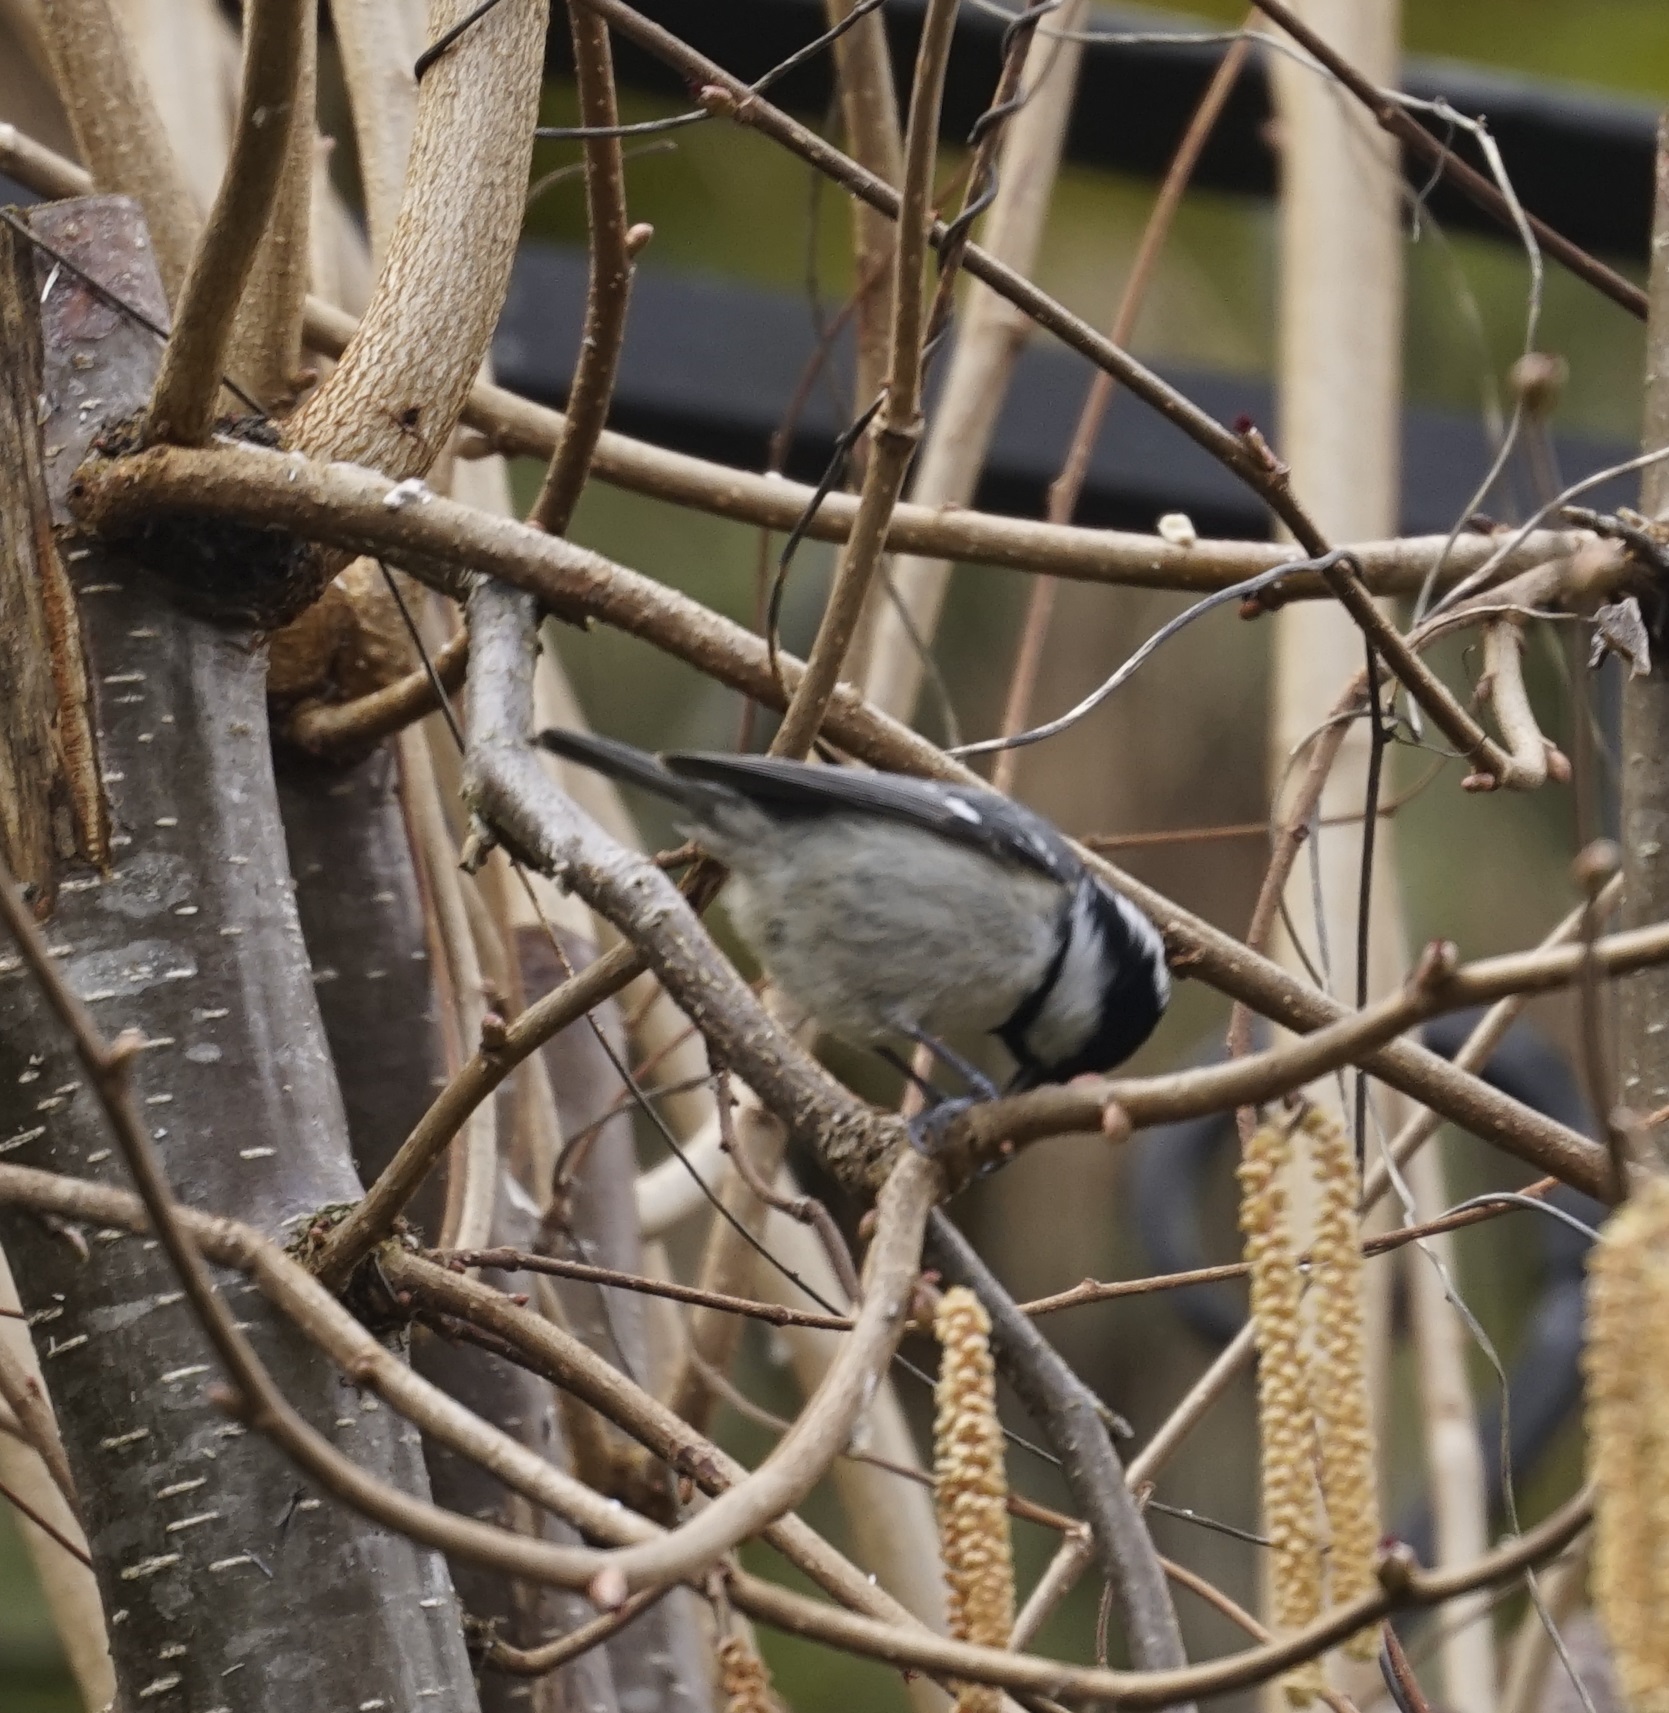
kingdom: Animalia
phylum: Chordata
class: Aves
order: Passeriformes
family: Paridae
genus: Periparus
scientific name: Periparus ater
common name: Coal tit
